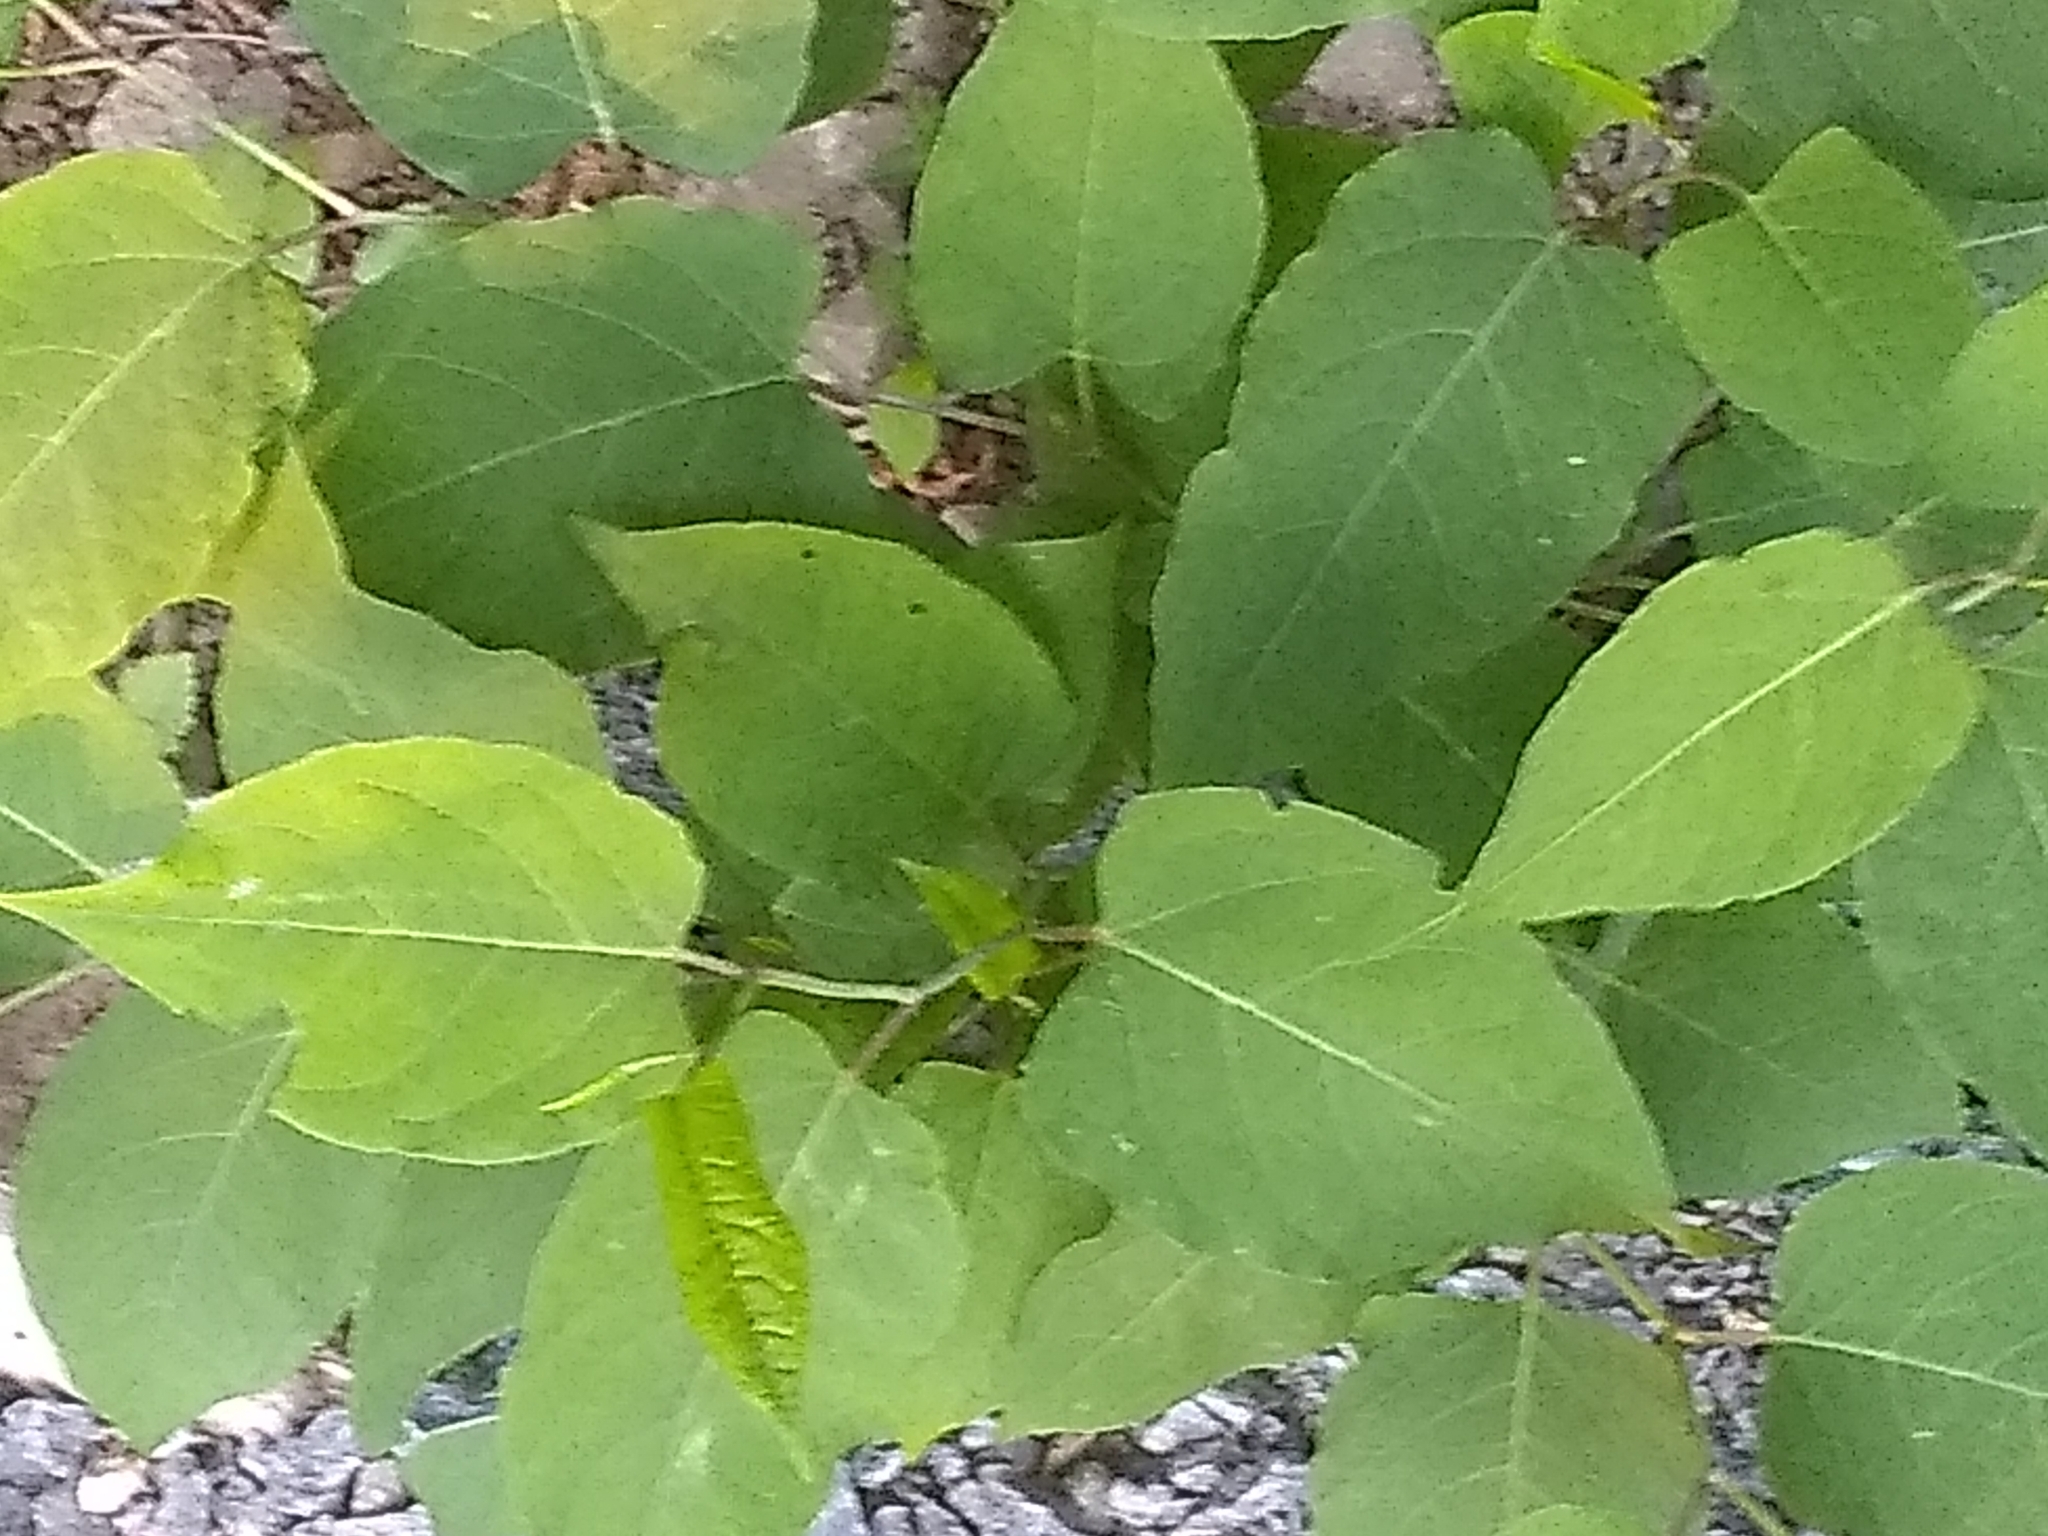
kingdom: Plantae
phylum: Tracheophyta
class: Magnoliopsida
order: Caryophyllales
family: Polygonaceae
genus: Reynoutria
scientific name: Reynoutria japonica
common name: Japanese knotweed
